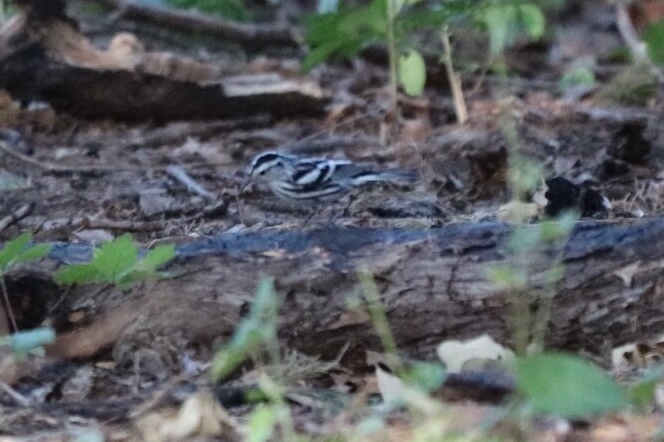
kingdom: Animalia
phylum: Chordata
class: Aves
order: Passeriformes
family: Parulidae
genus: Mniotilta
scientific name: Mniotilta varia
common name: Black-and-white warbler
